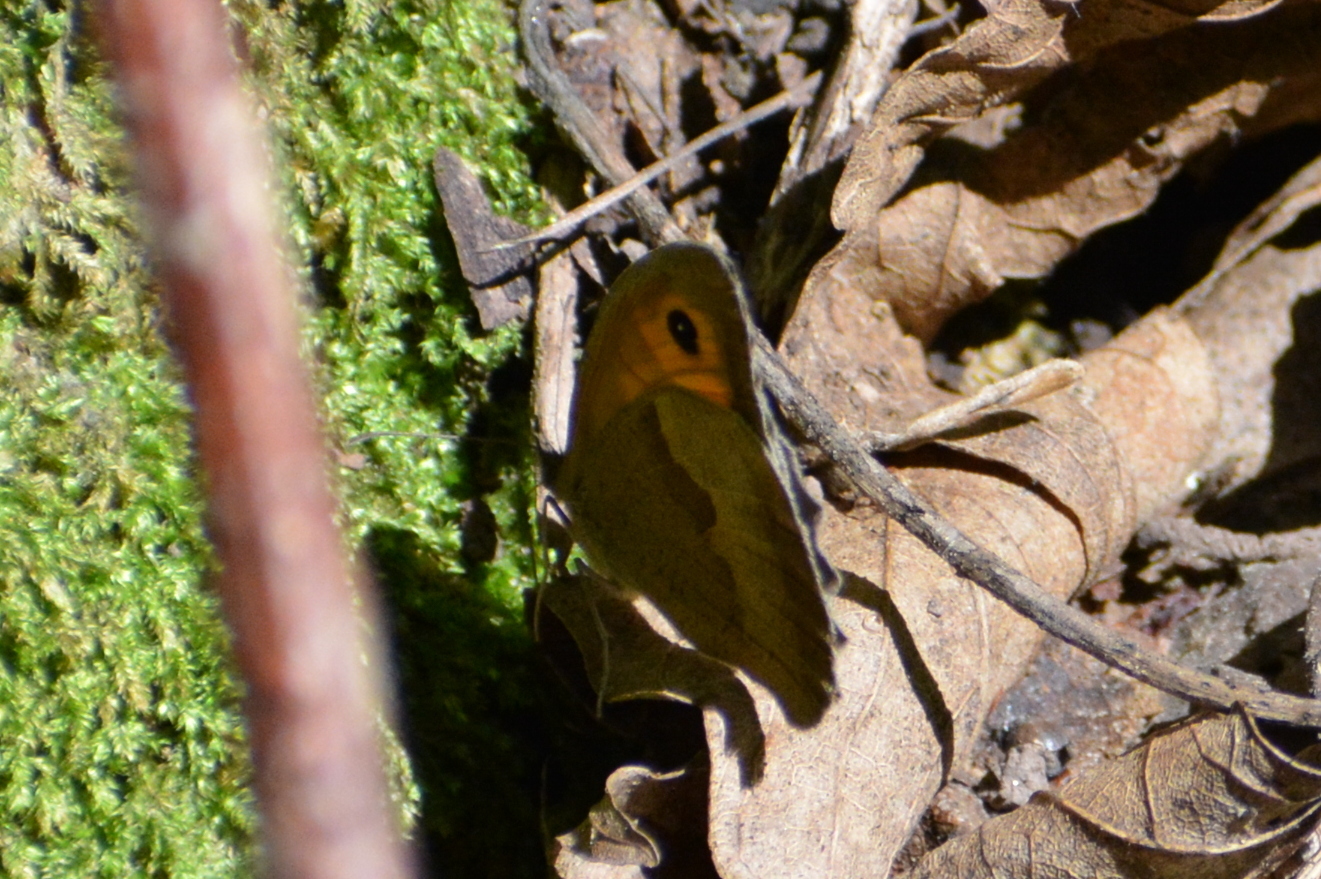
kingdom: Animalia
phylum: Arthropoda
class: Insecta
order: Lepidoptera
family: Nymphalidae
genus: Maniola
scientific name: Maniola jurtina
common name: Meadow brown
